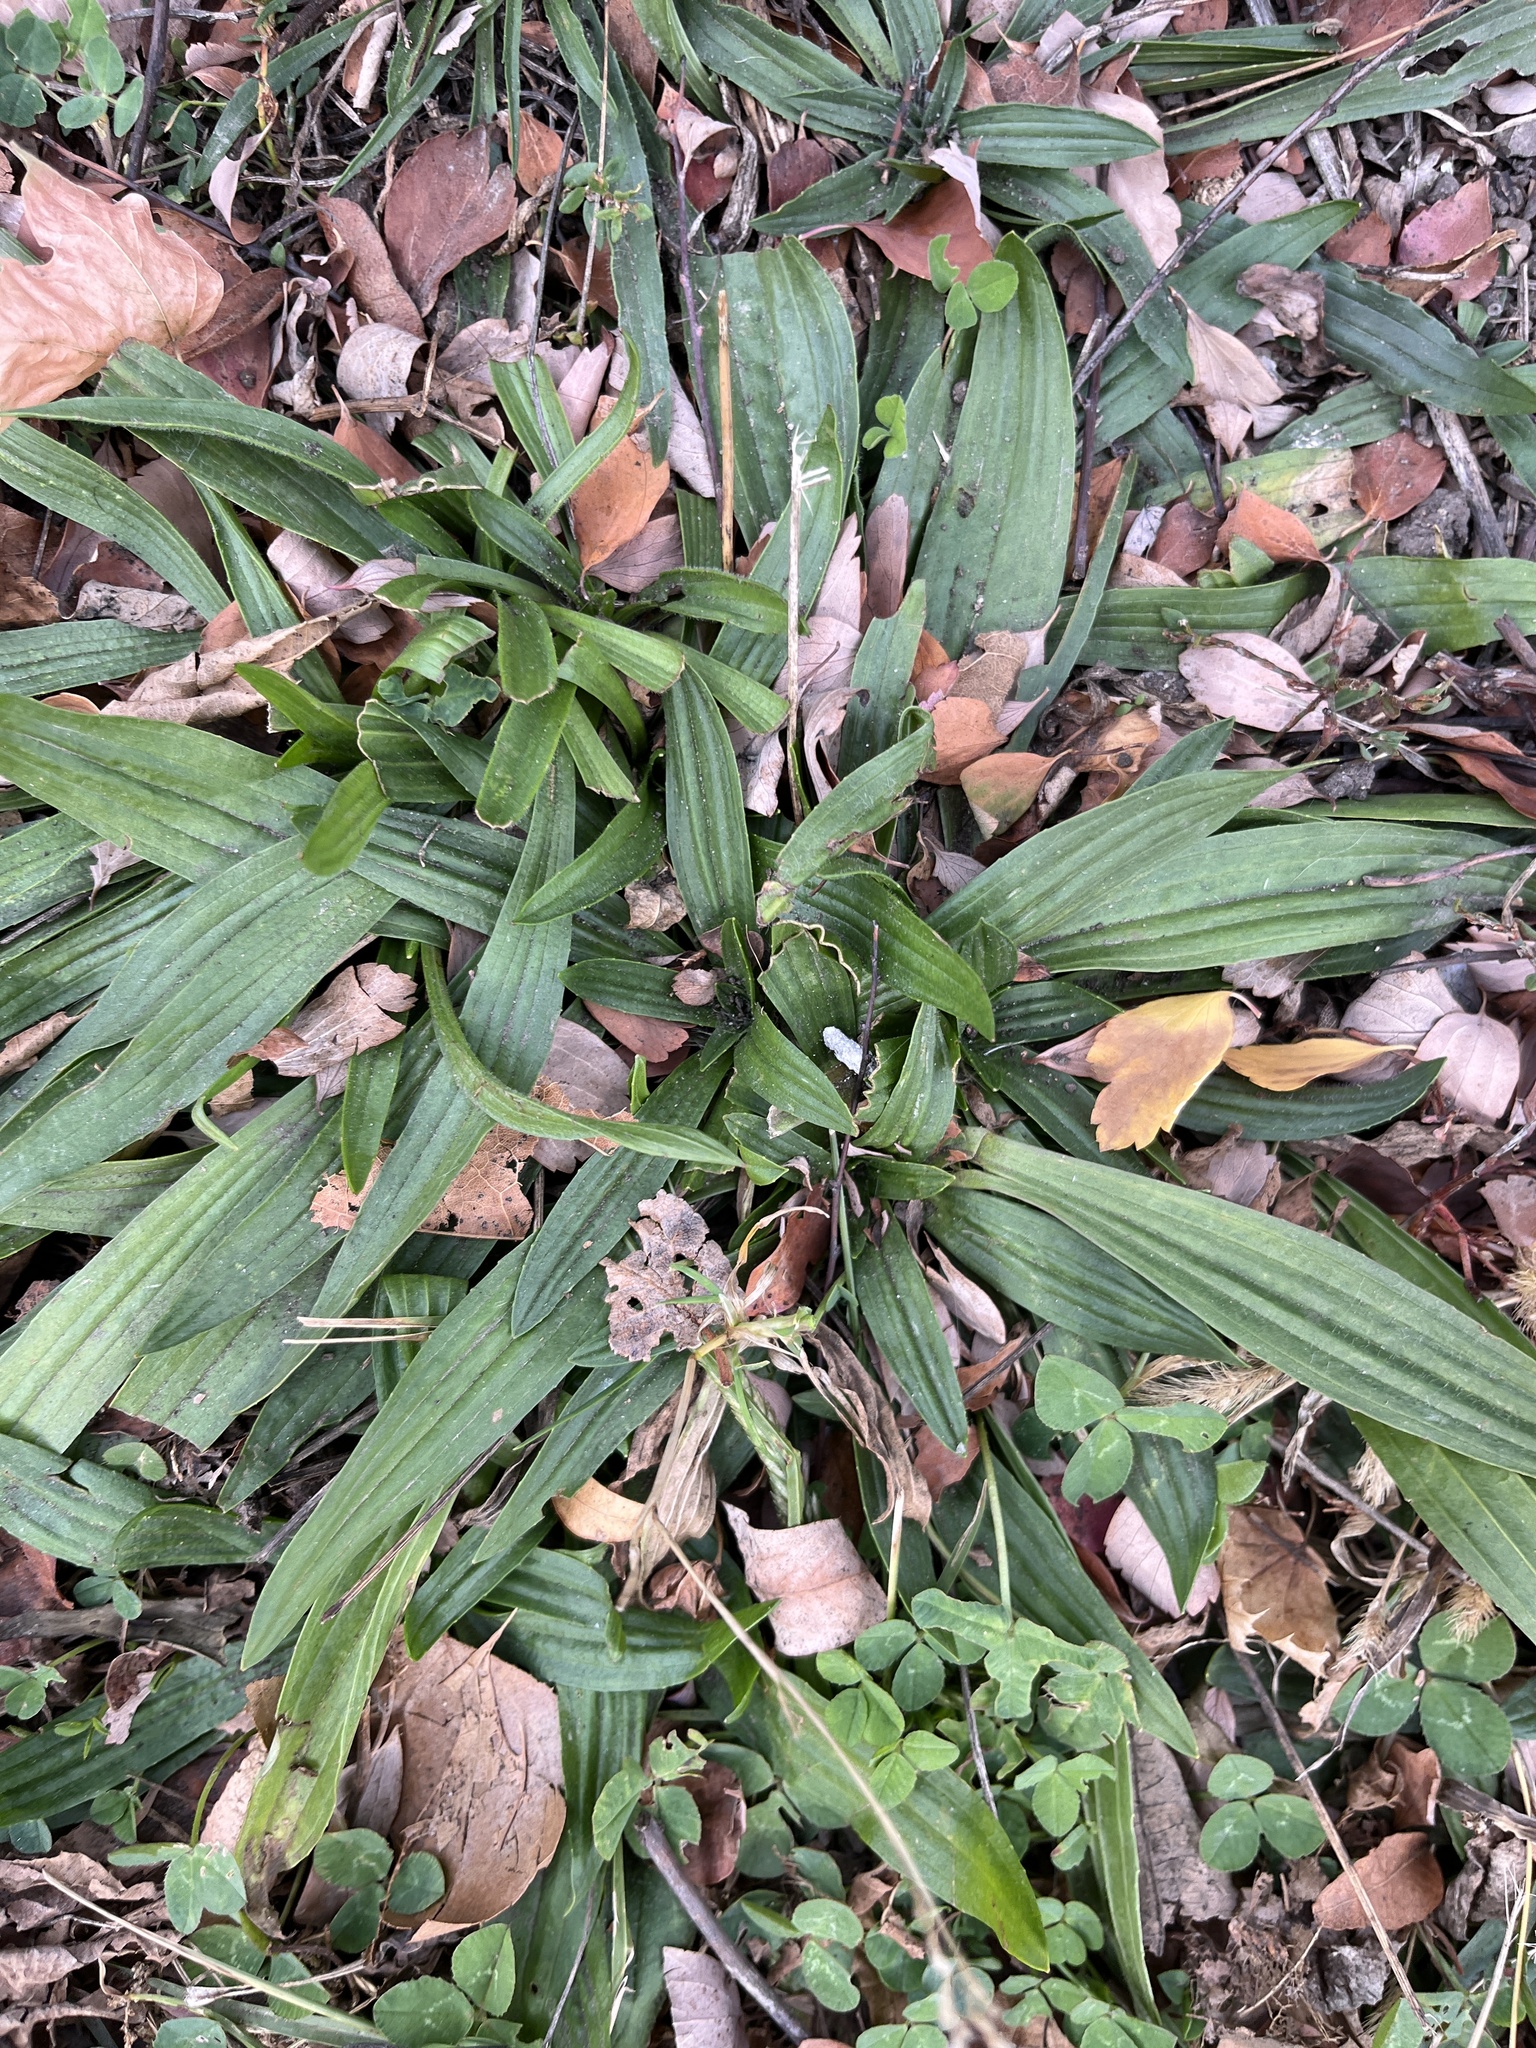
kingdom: Plantae
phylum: Tracheophyta
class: Magnoliopsida
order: Lamiales
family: Plantaginaceae
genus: Plantago
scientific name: Plantago lanceolata
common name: Ribwort plantain
